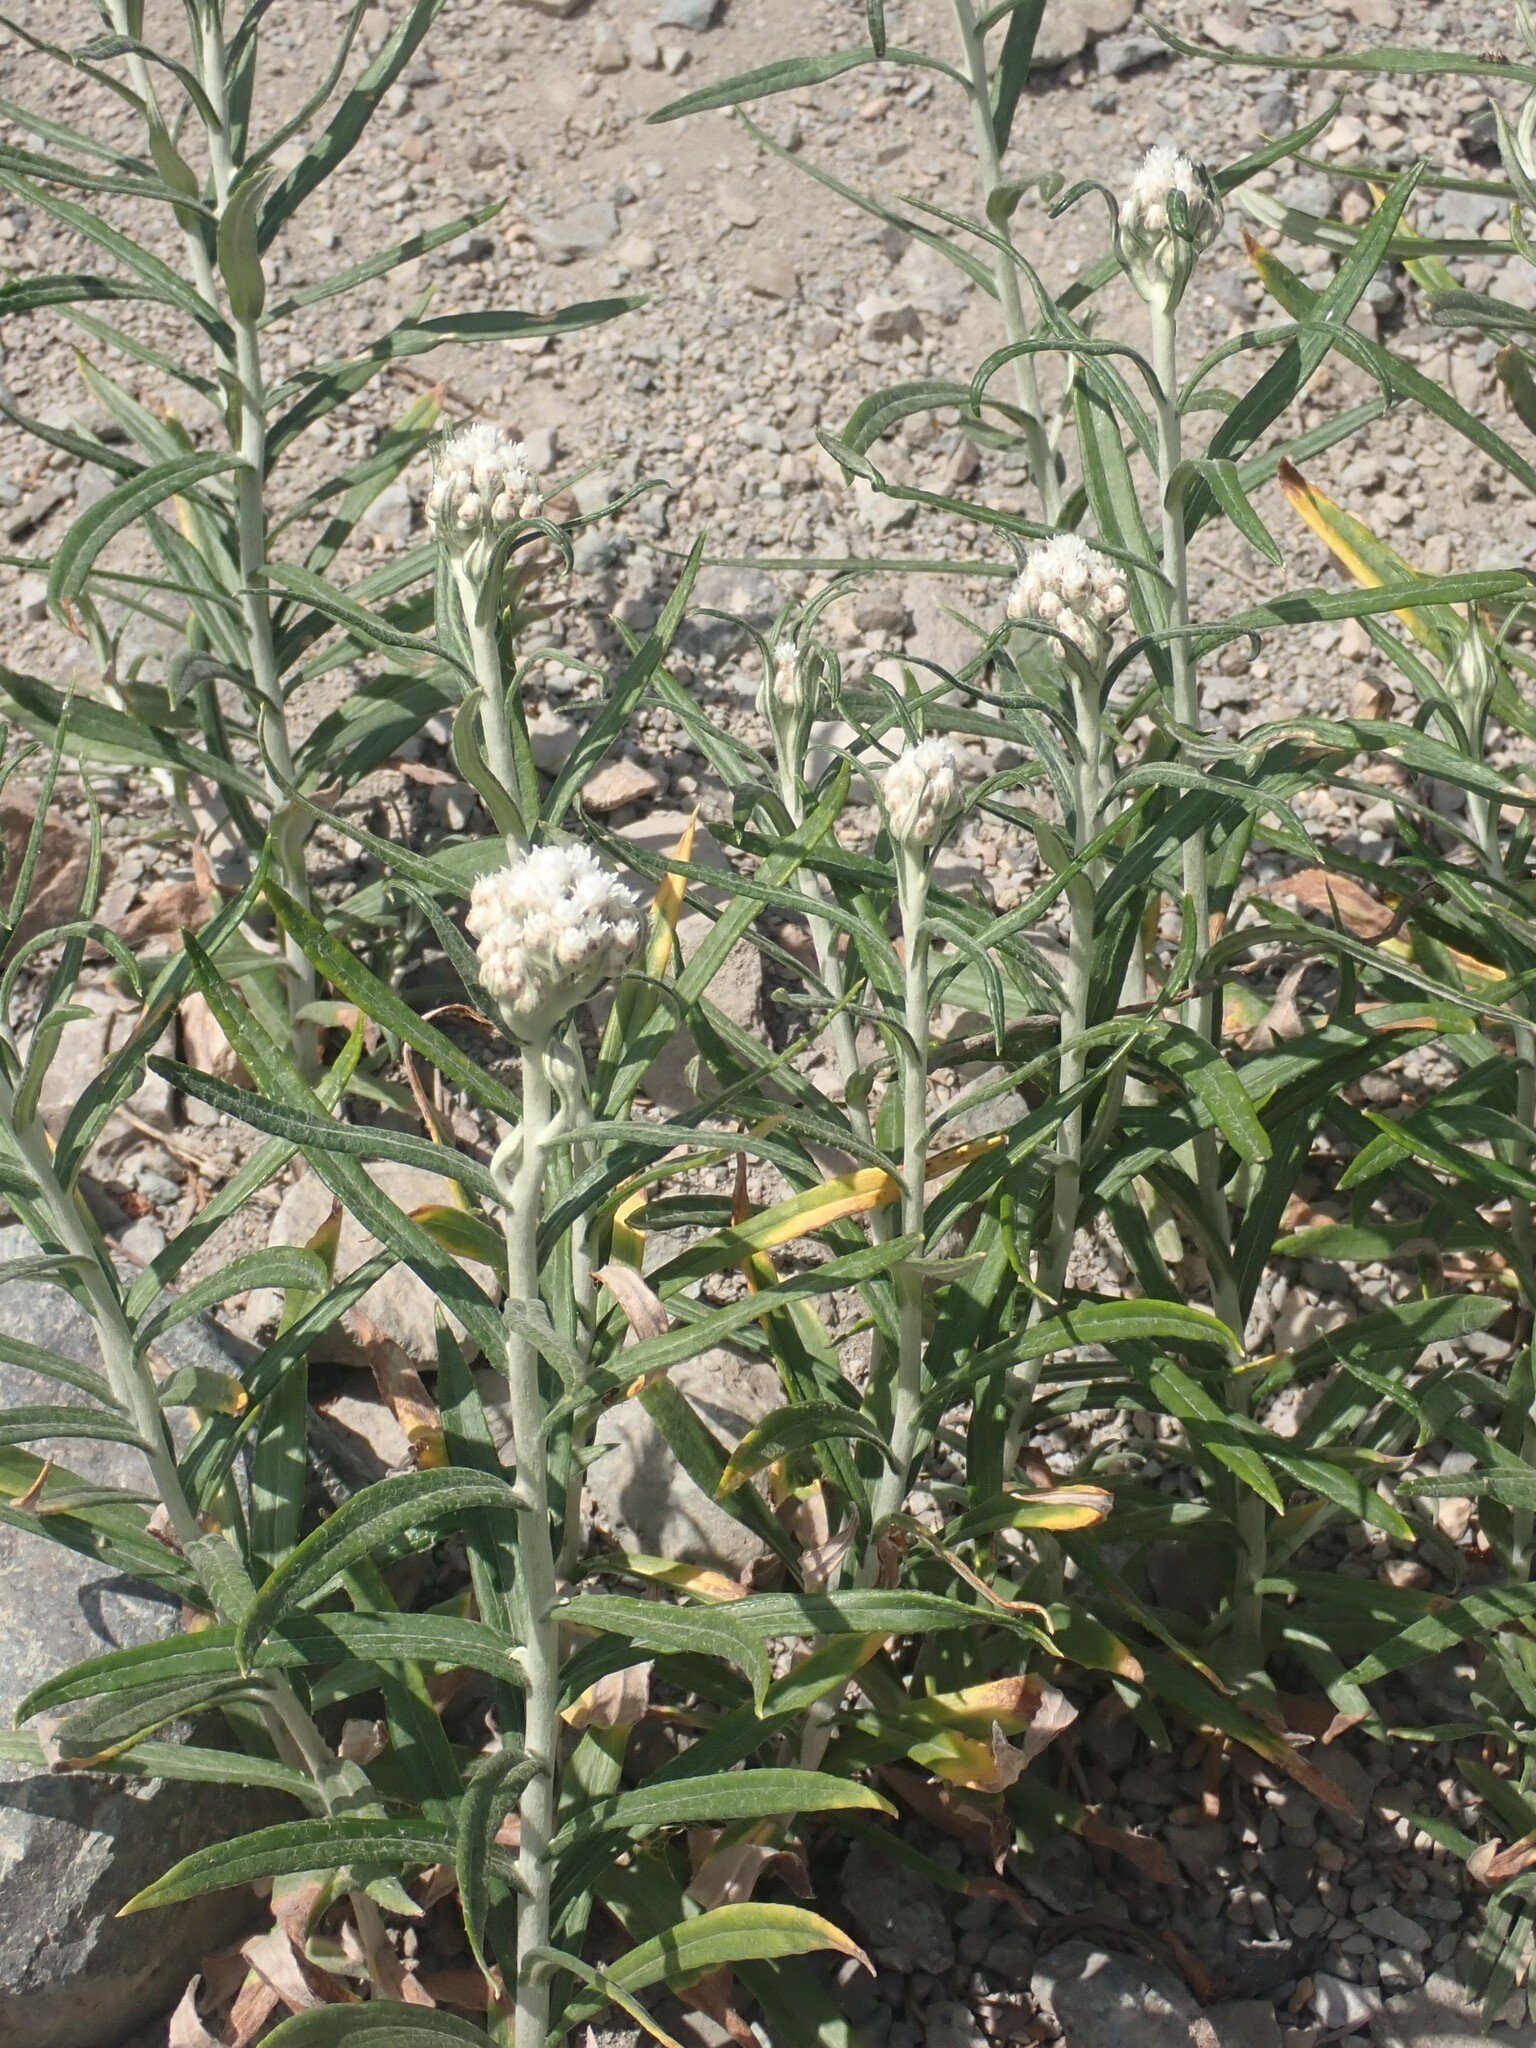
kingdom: Plantae
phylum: Tracheophyta
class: Magnoliopsida
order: Asterales
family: Asteraceae
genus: Anaphalis
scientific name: Anaphalis margaritacea
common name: Pearly everlasting
